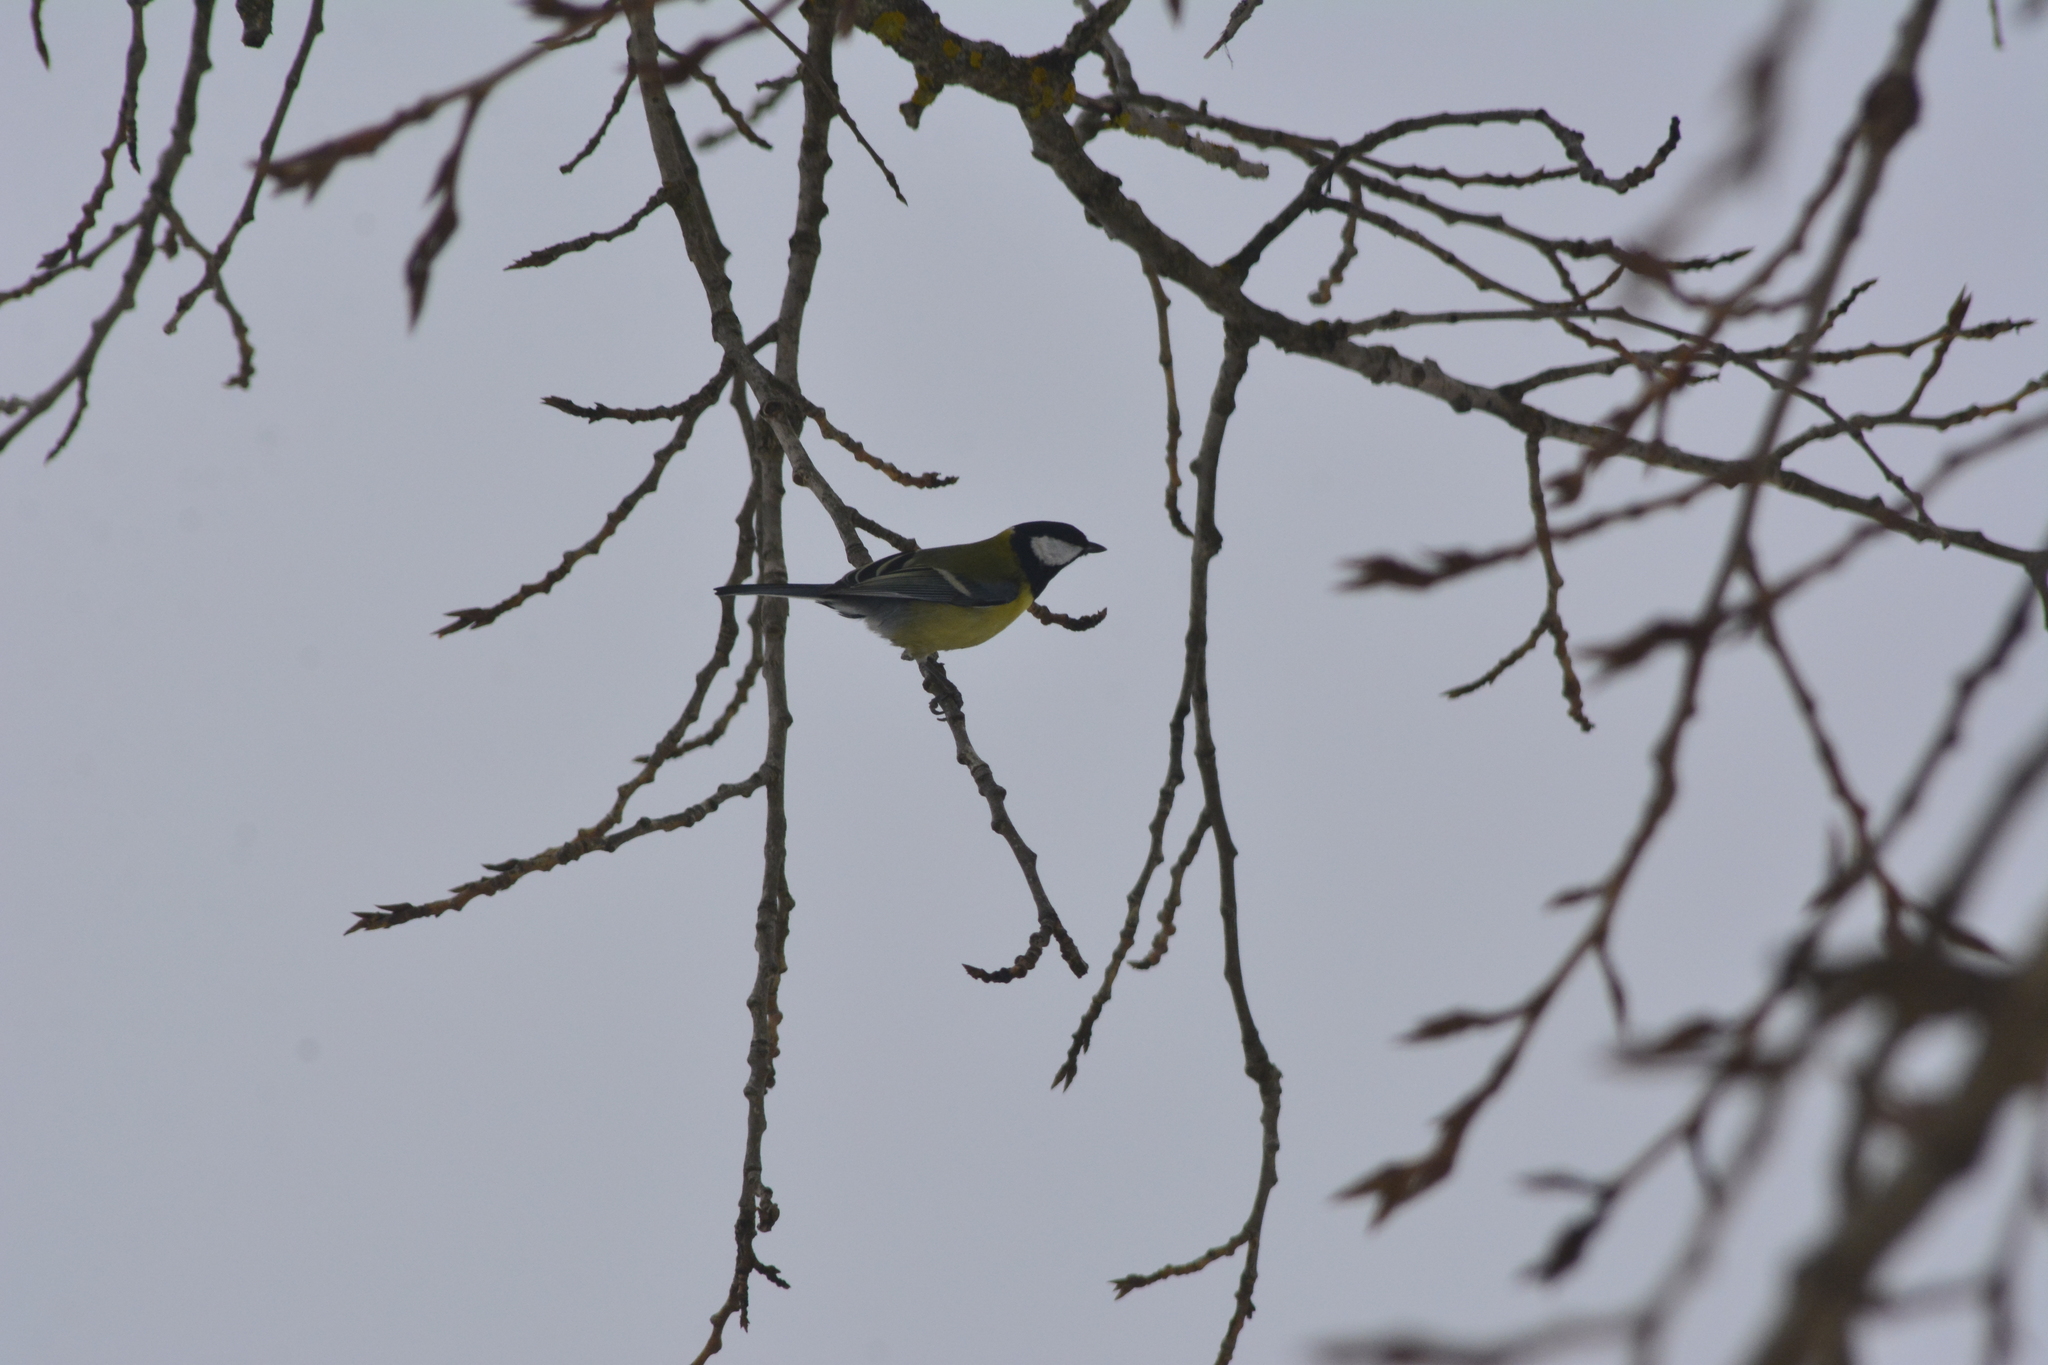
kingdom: Animalia
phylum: Chordata
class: Aves
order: Passeriformes
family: Paridae
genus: Parus
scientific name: Parus major
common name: Great tit
